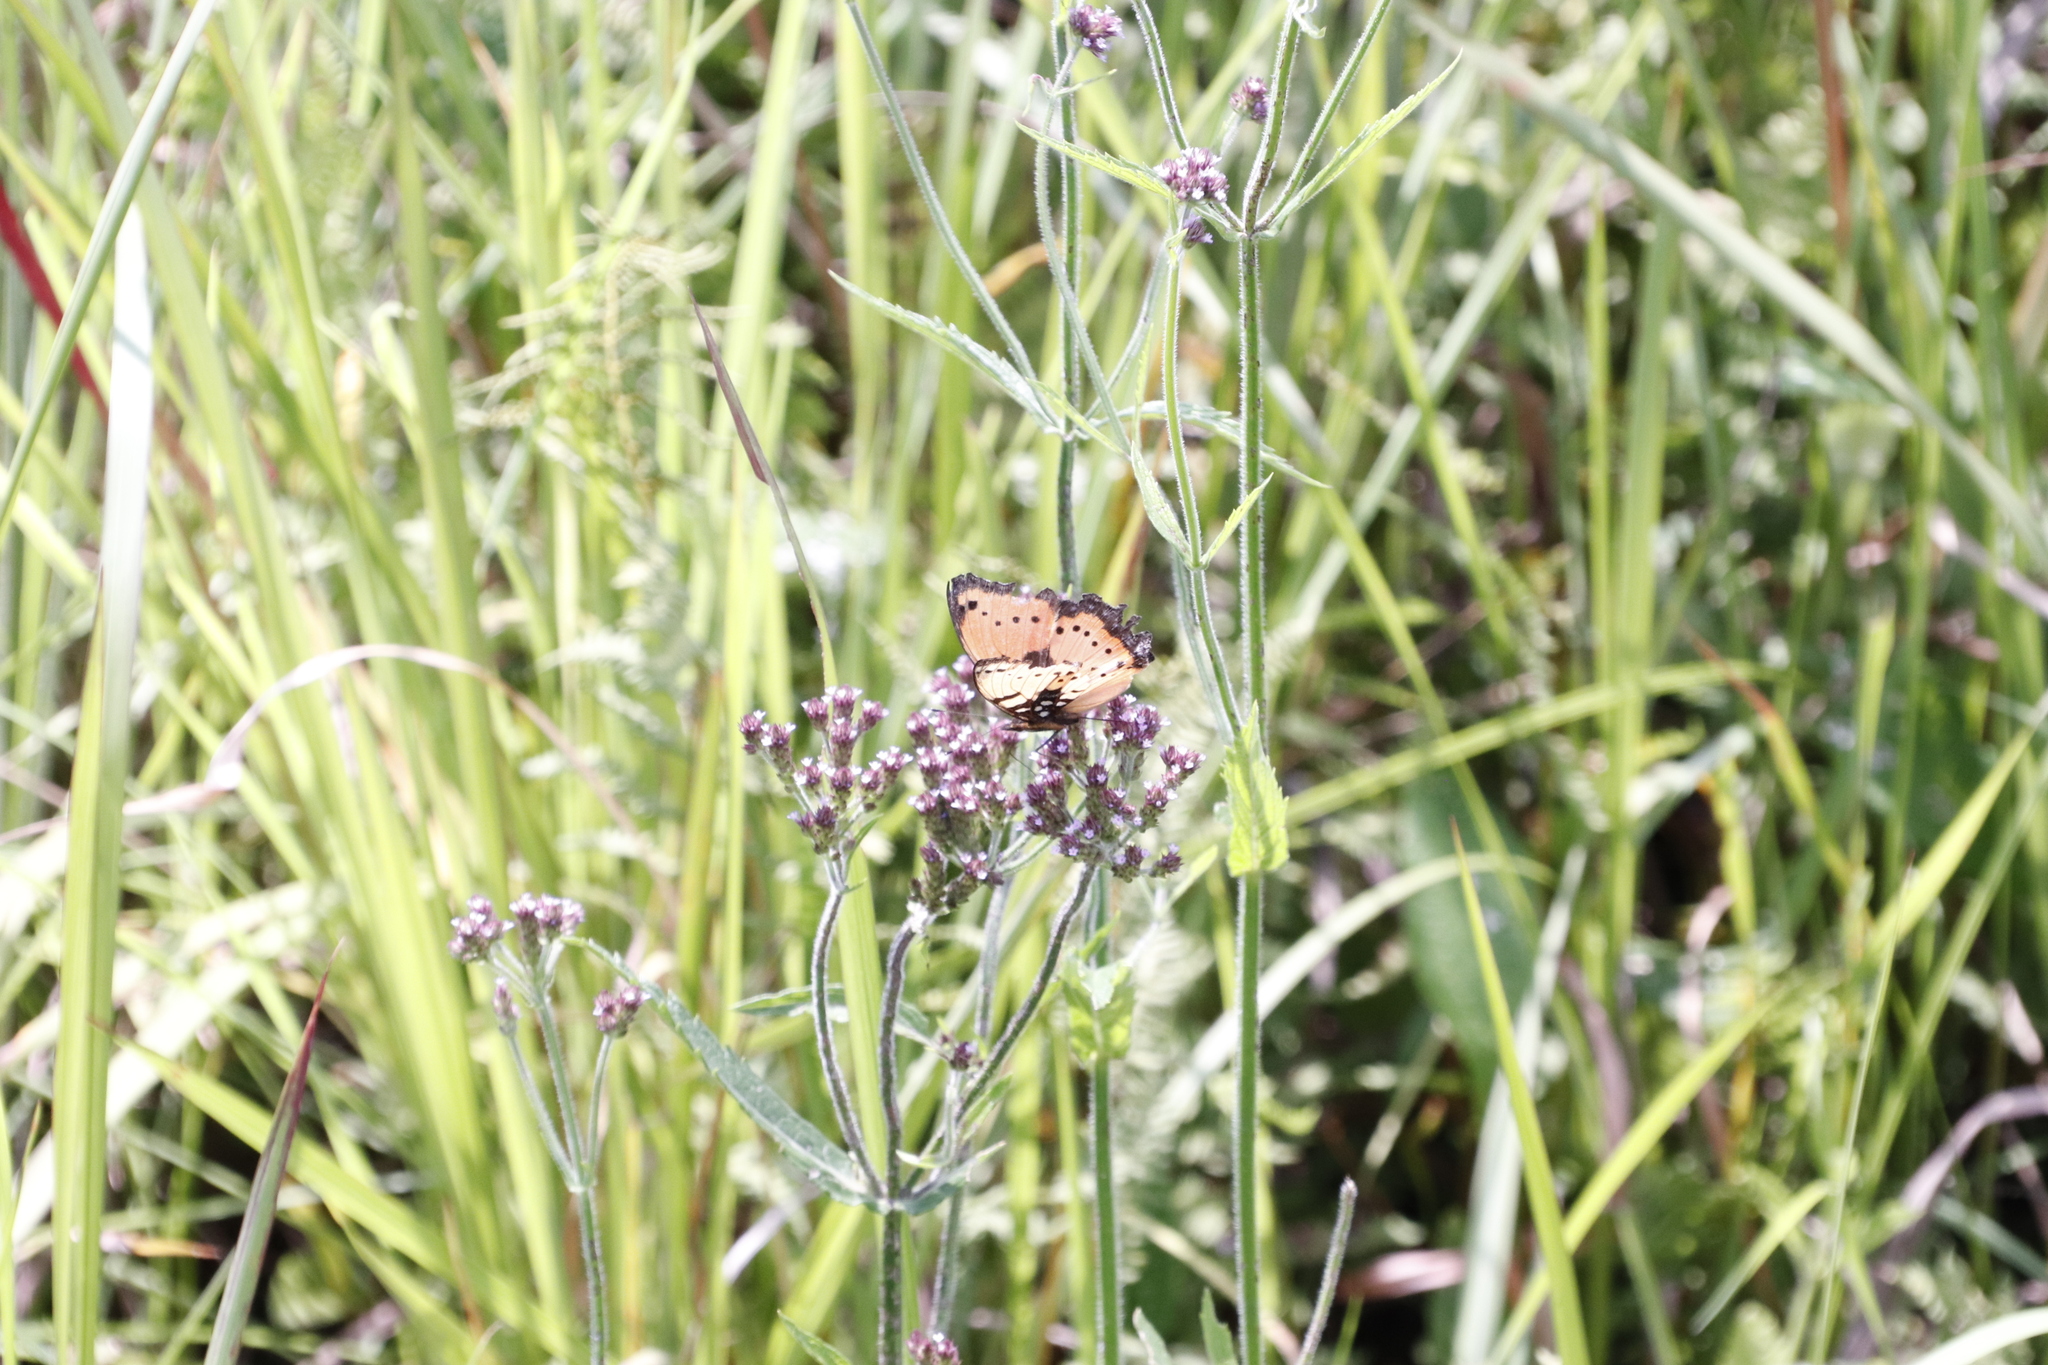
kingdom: Animalia
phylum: Arthropoda
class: Insecta
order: Lepidoptera
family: Nymphalidae
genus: Precis
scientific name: Precis octavia
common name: Gaudy commodore
